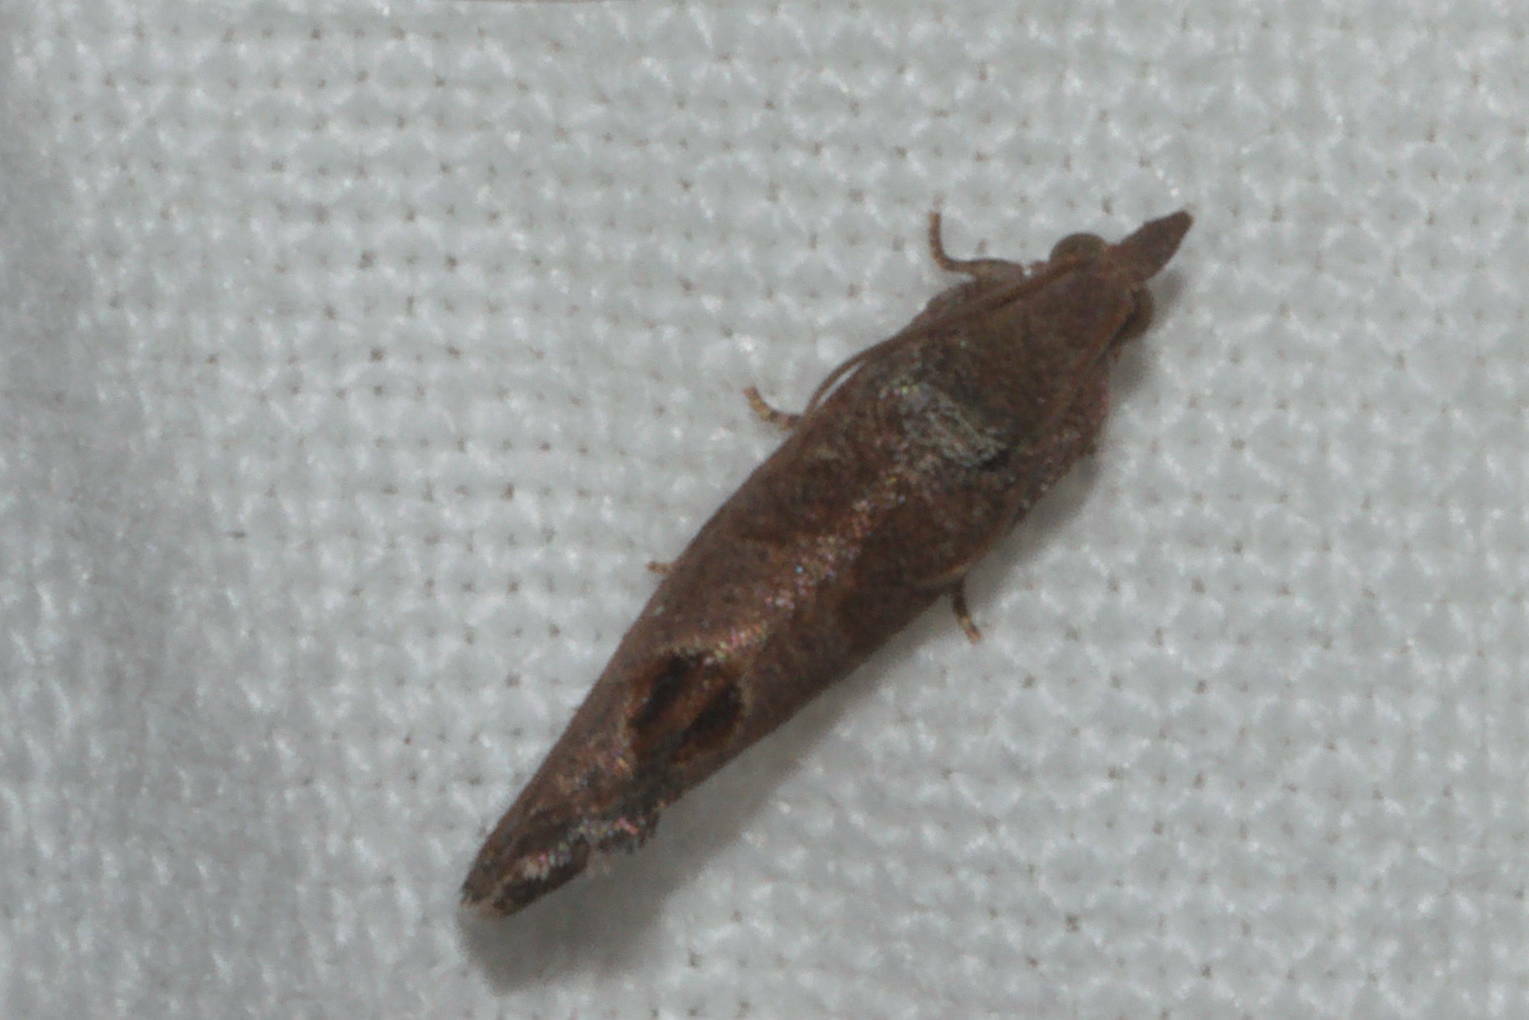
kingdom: Animalia
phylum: Arthropoda
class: Insecta
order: Lepidoptera
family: Tortricidae
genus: Cryptophlebia
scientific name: Cryptophlebia illepida
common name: Moth
